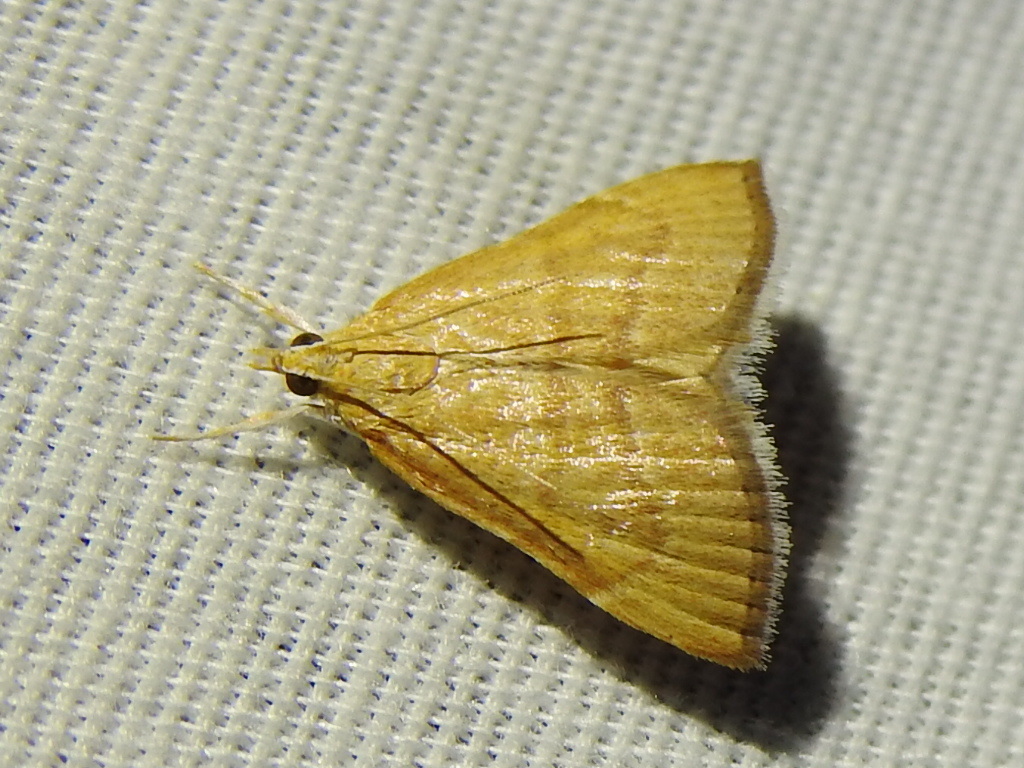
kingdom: Animalia
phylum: Arthropoda
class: Insecta
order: Lepidoptera
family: Crambidae
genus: Glaphyria
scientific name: Glaphyria invisalis
